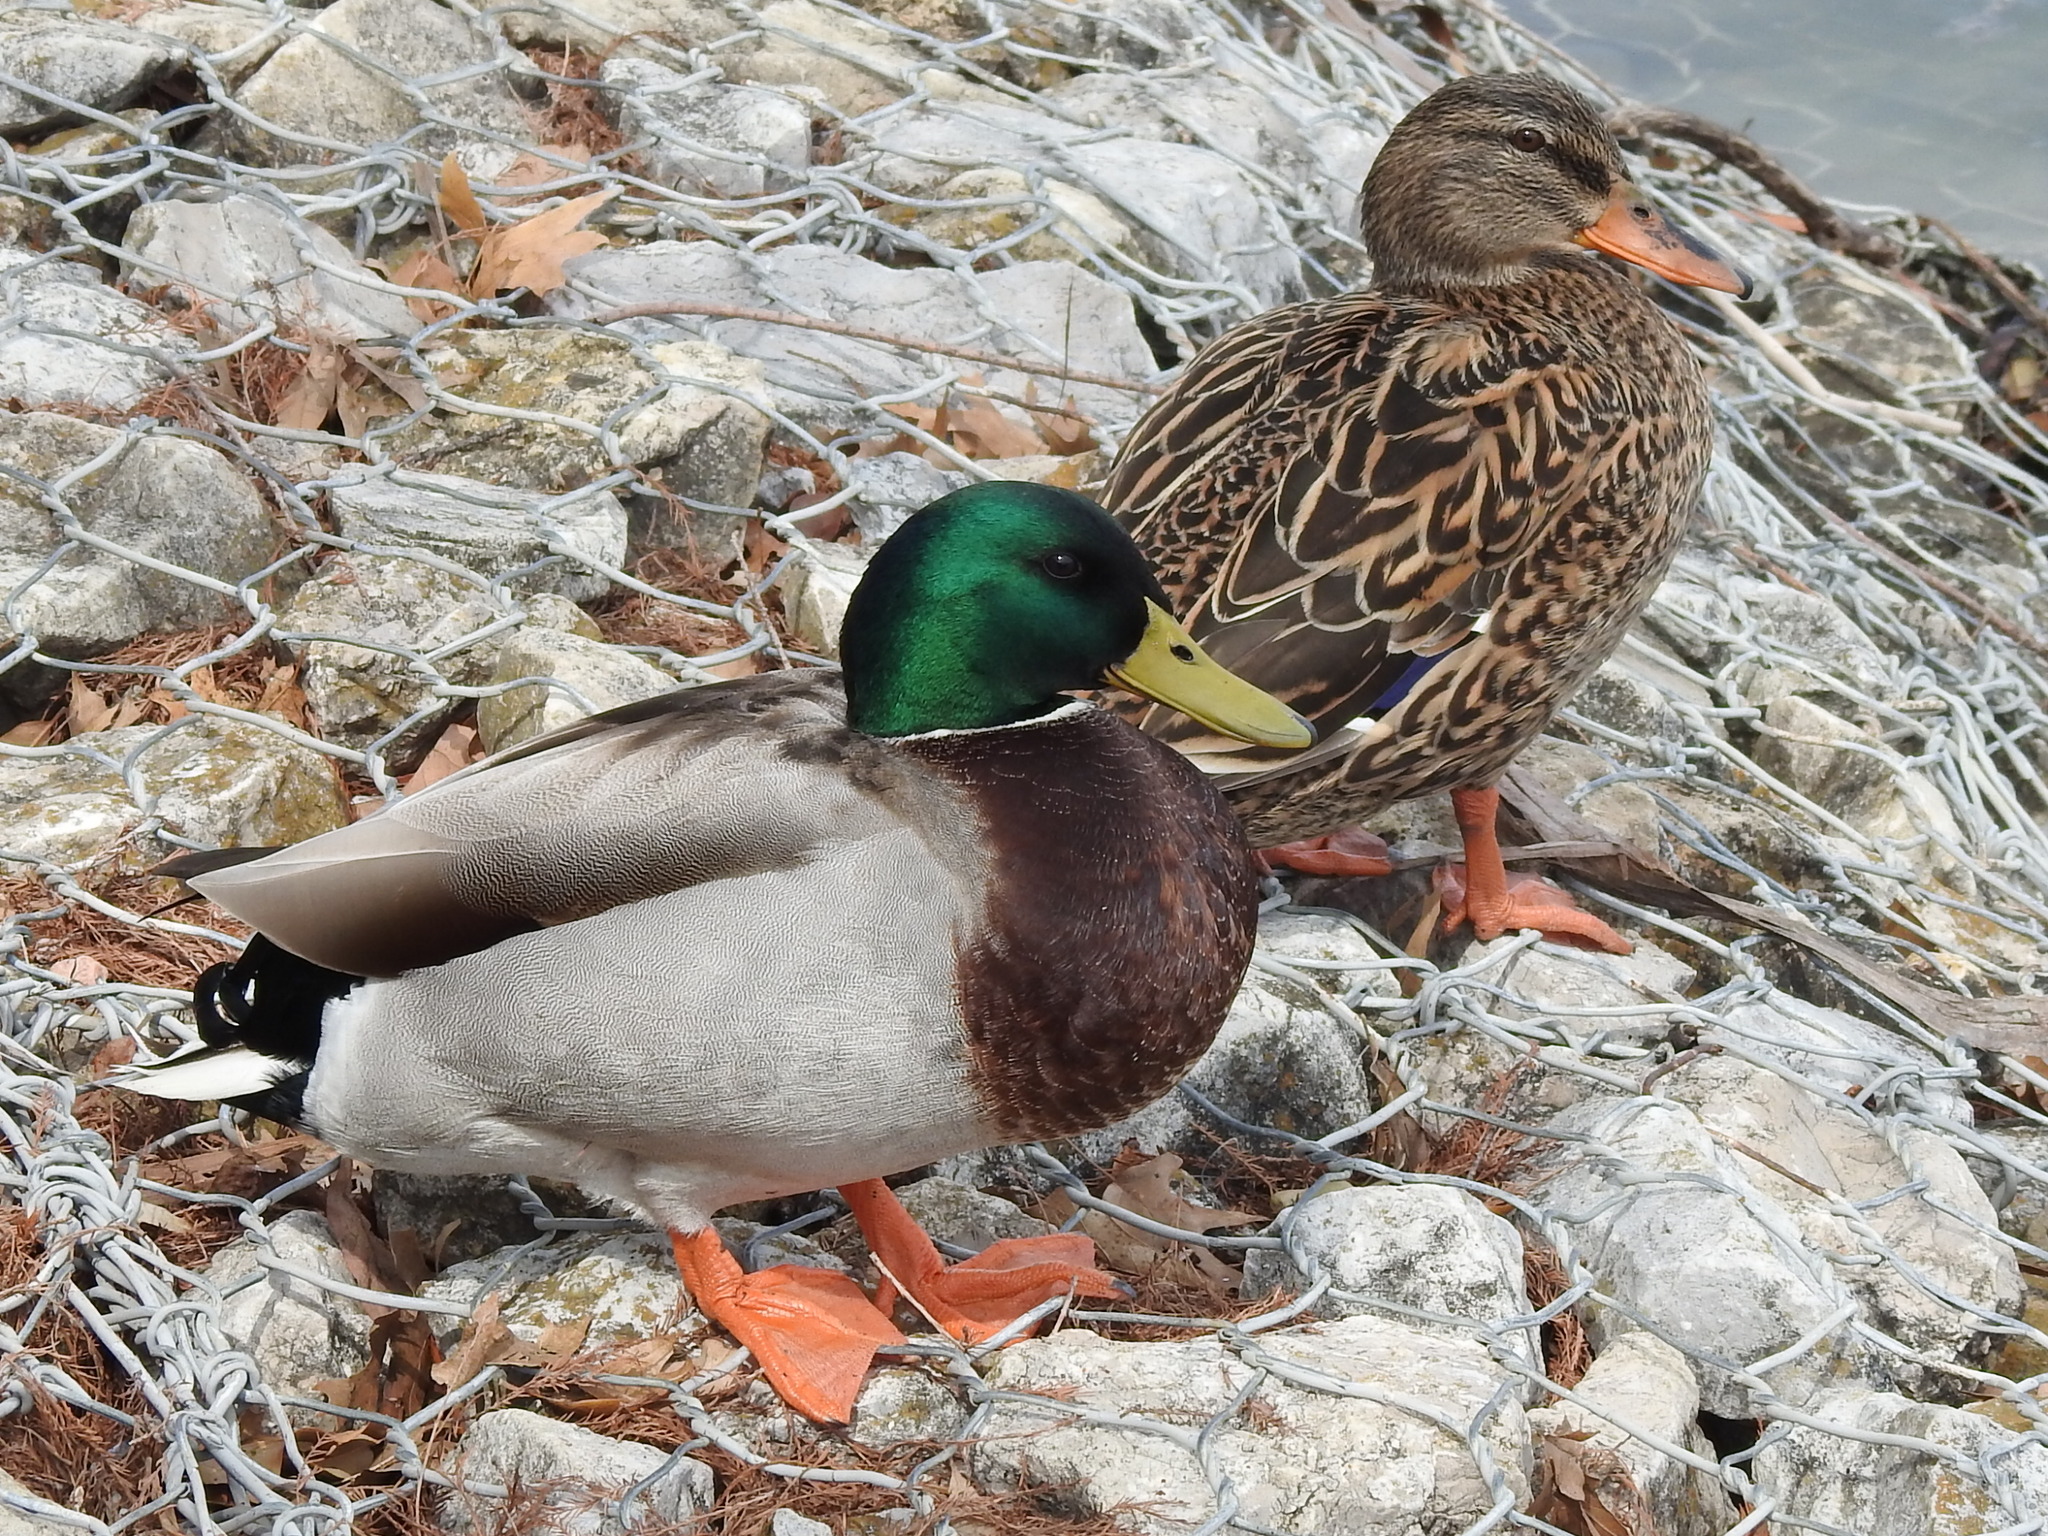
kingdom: Animalia
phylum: Chordata
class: Aves
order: Anseriformes
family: Anatidae
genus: Anas
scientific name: Anas platyrhynchos
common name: Mallard
